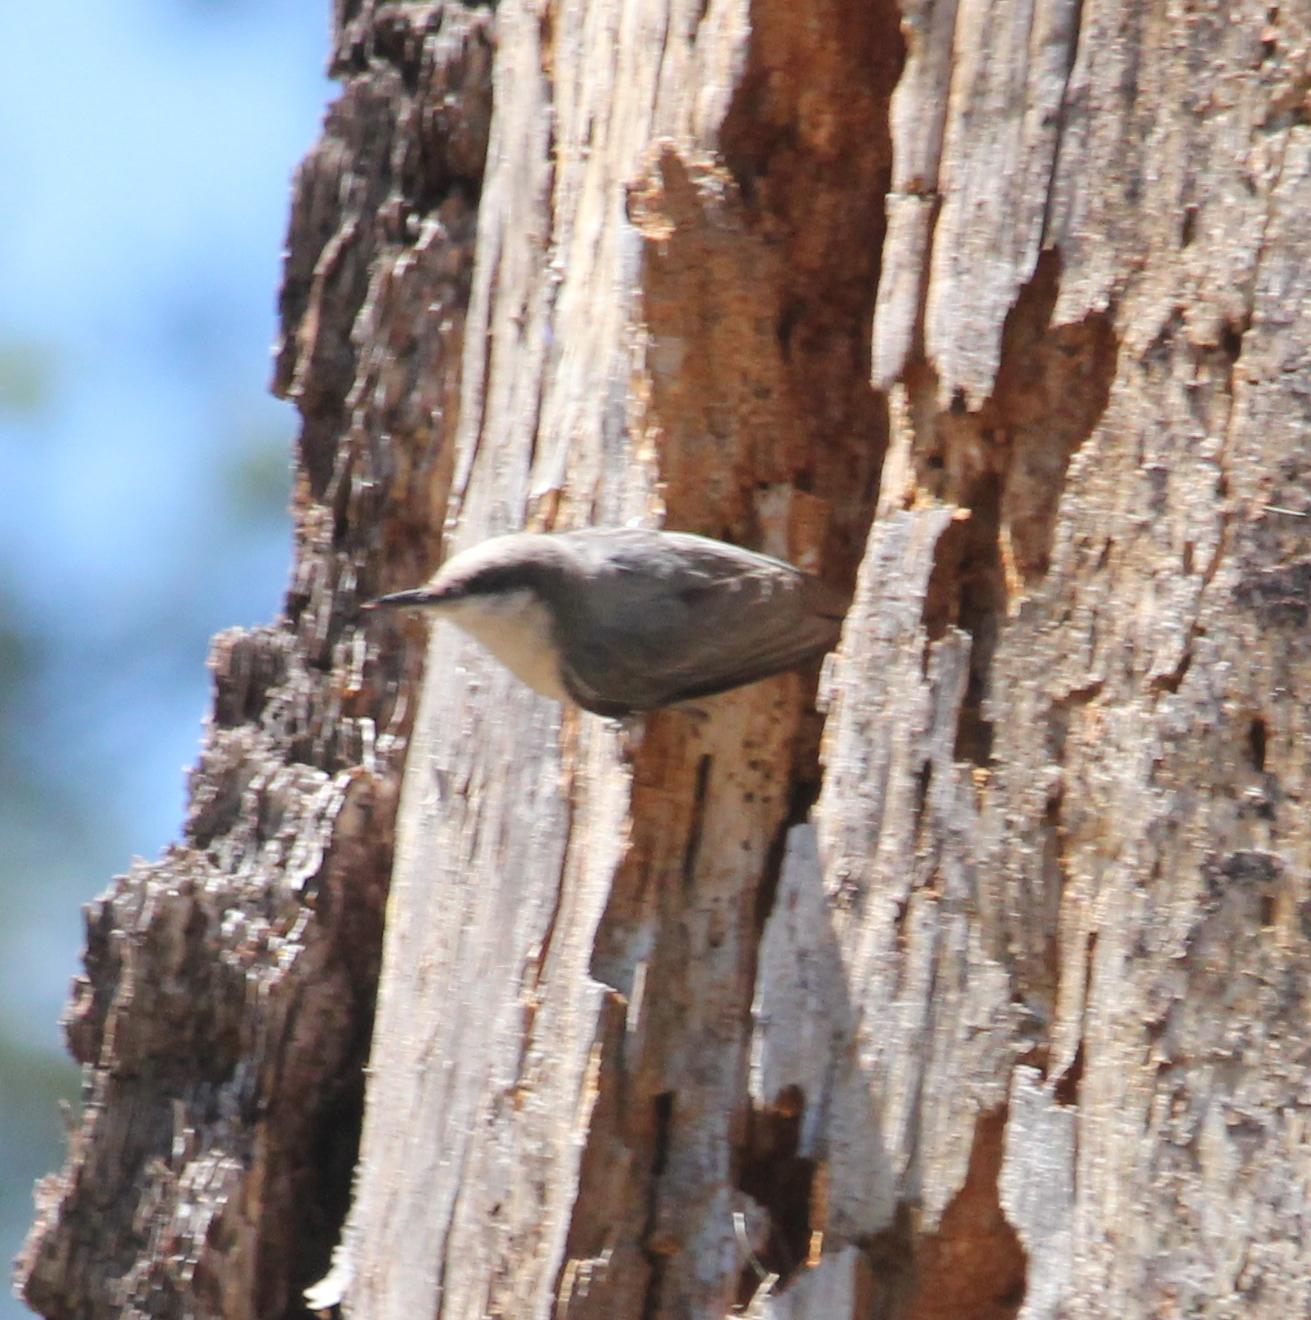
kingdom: Animalia
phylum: Chordata
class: Aves
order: Passeriformes
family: Sittidae
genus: Sitta
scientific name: Sitta pygmaea
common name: Pygmy nuthatch
